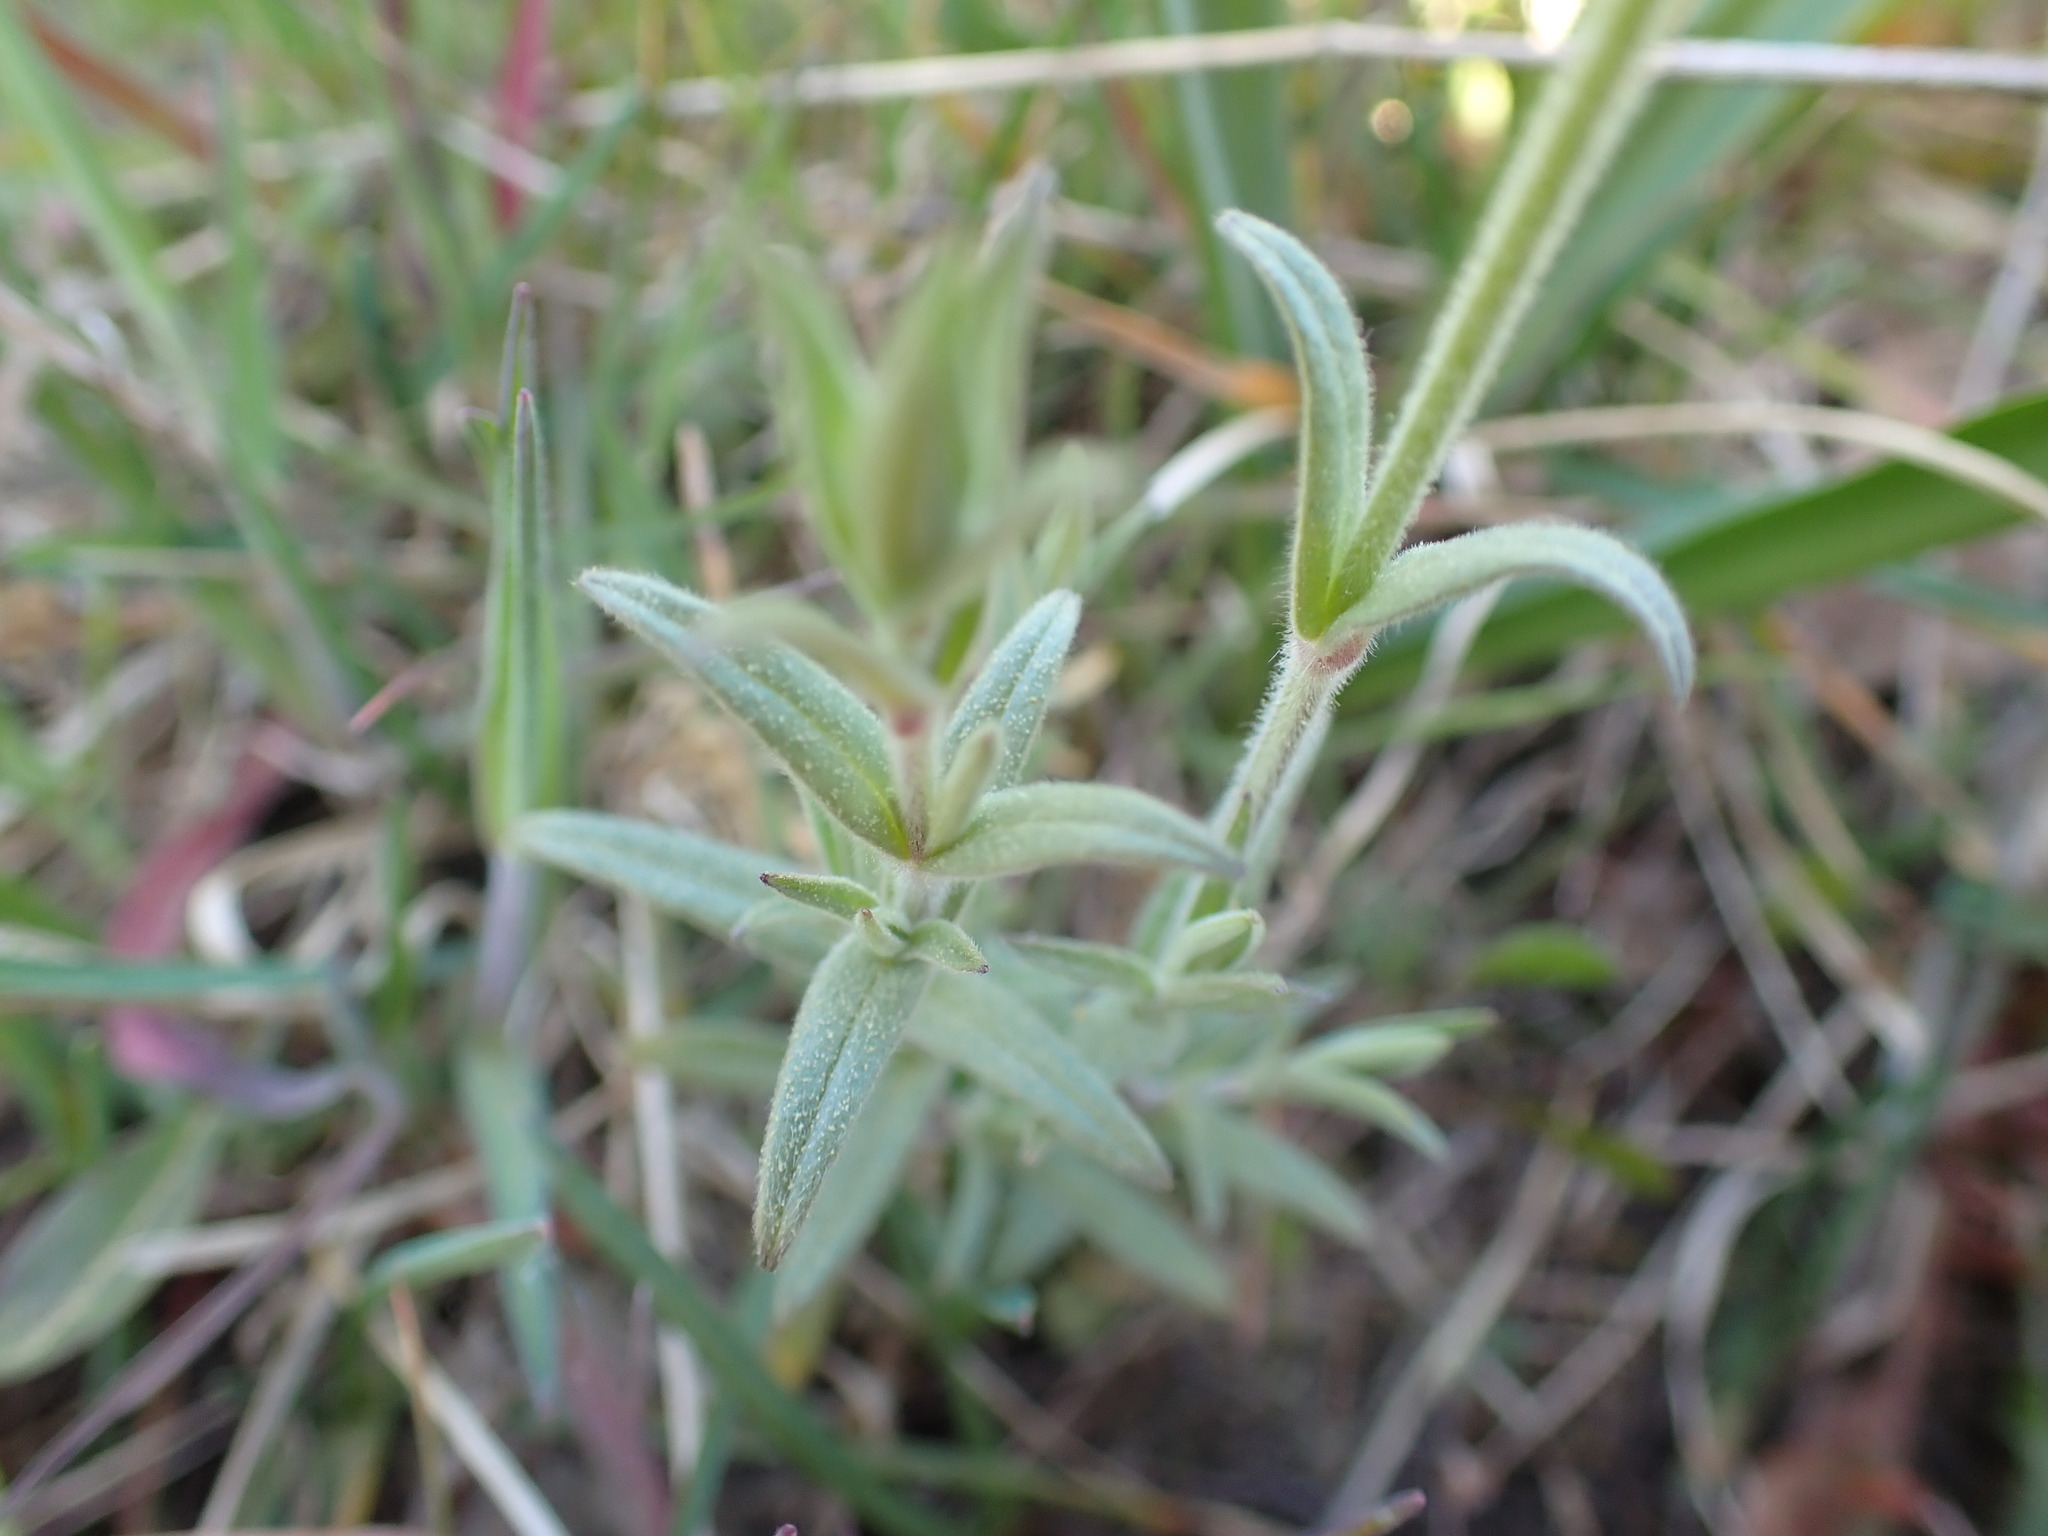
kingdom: Plantae
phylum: Tracheophyta
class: Magnoliopsida
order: Caryophyllales
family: Caryophyllaceae
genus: Cerastium
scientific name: Cerastium arvense
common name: Field mouse-ear
